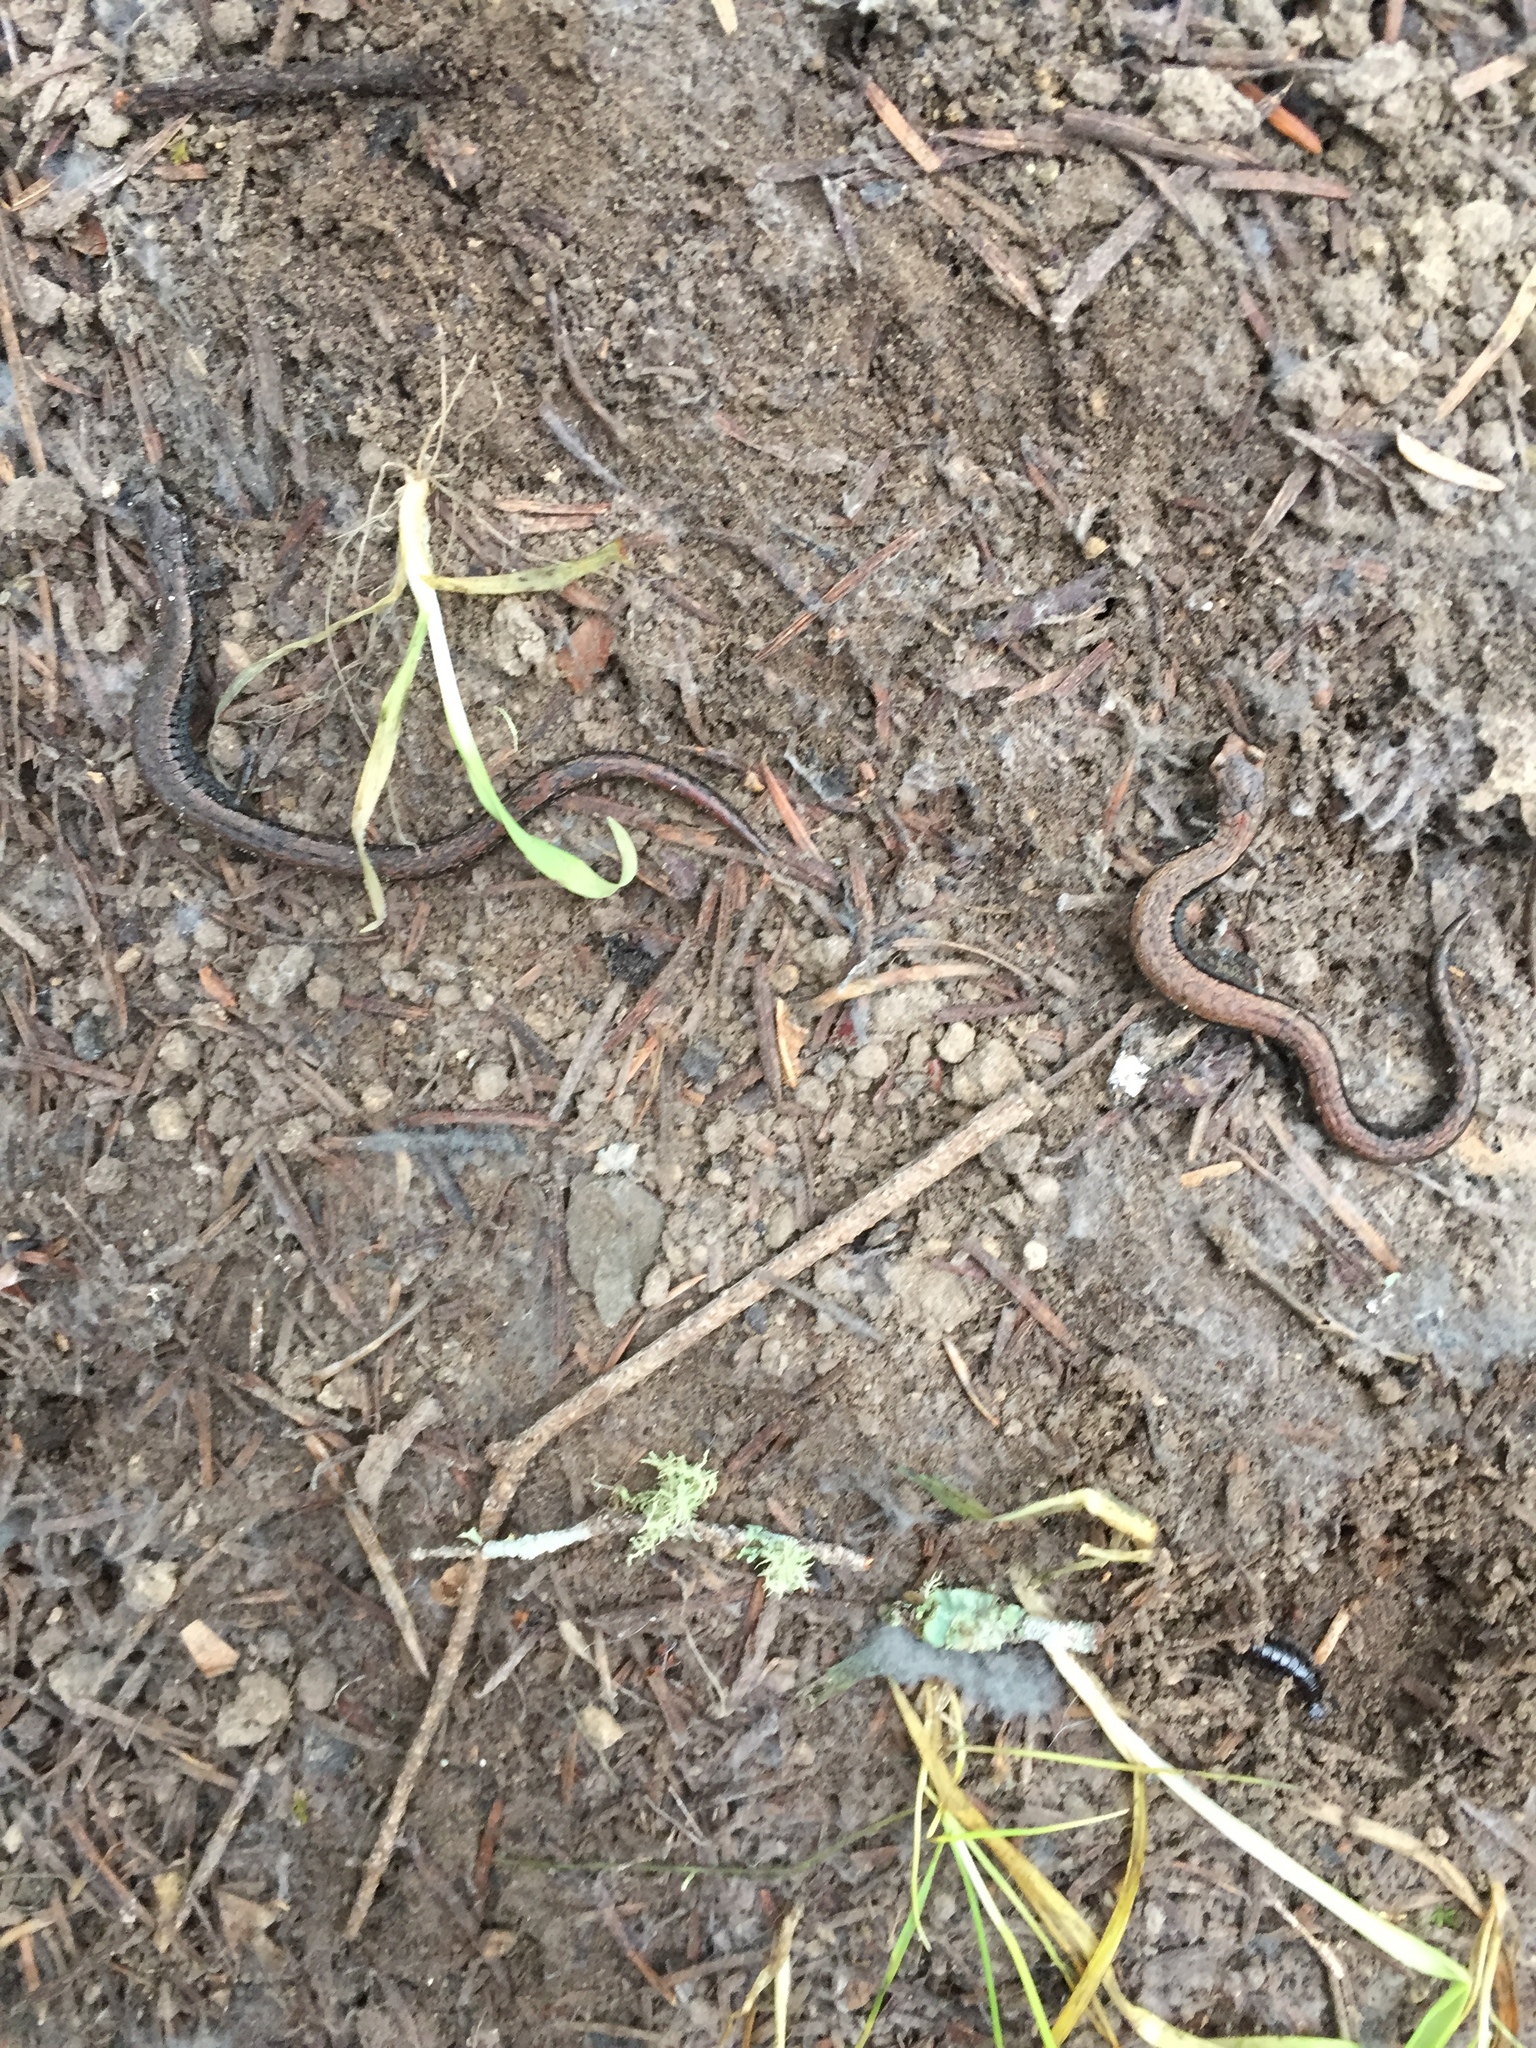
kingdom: Animalia
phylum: Chordata
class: Amphibia
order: Caudata
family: Plethodontidae
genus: Batrachoseps
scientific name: Batrachoseps attenuatus
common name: California slender salamander
